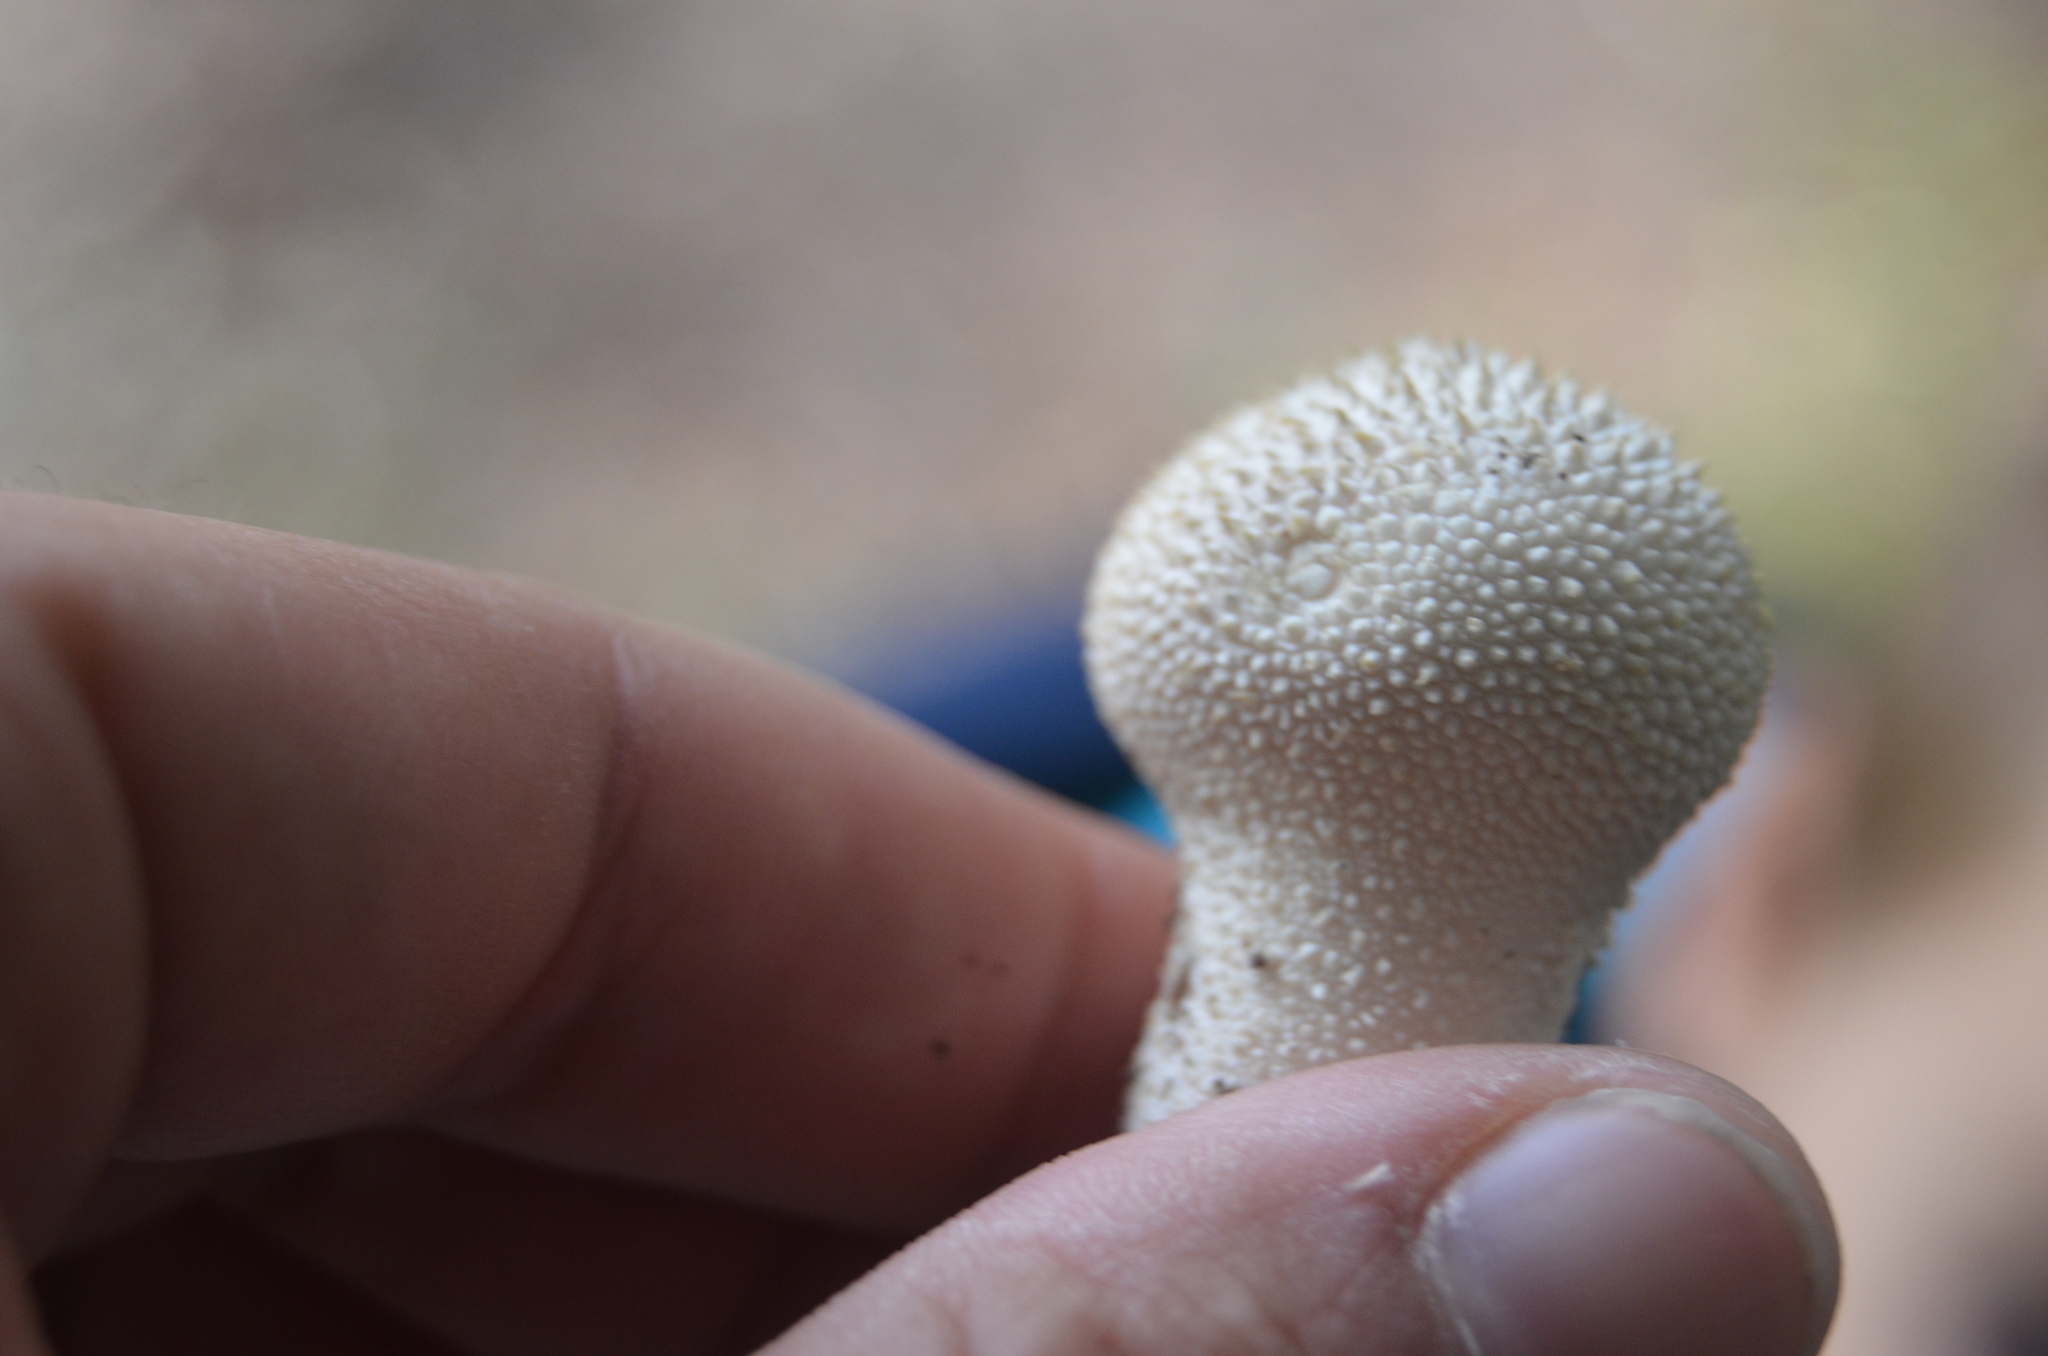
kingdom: Fungi
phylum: Basidiomycota
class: Agaricomycetes
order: Agaricales
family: Lycoperdaceae
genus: Lycoperdon
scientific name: Lycoperdon perlatum
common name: Common puffball
